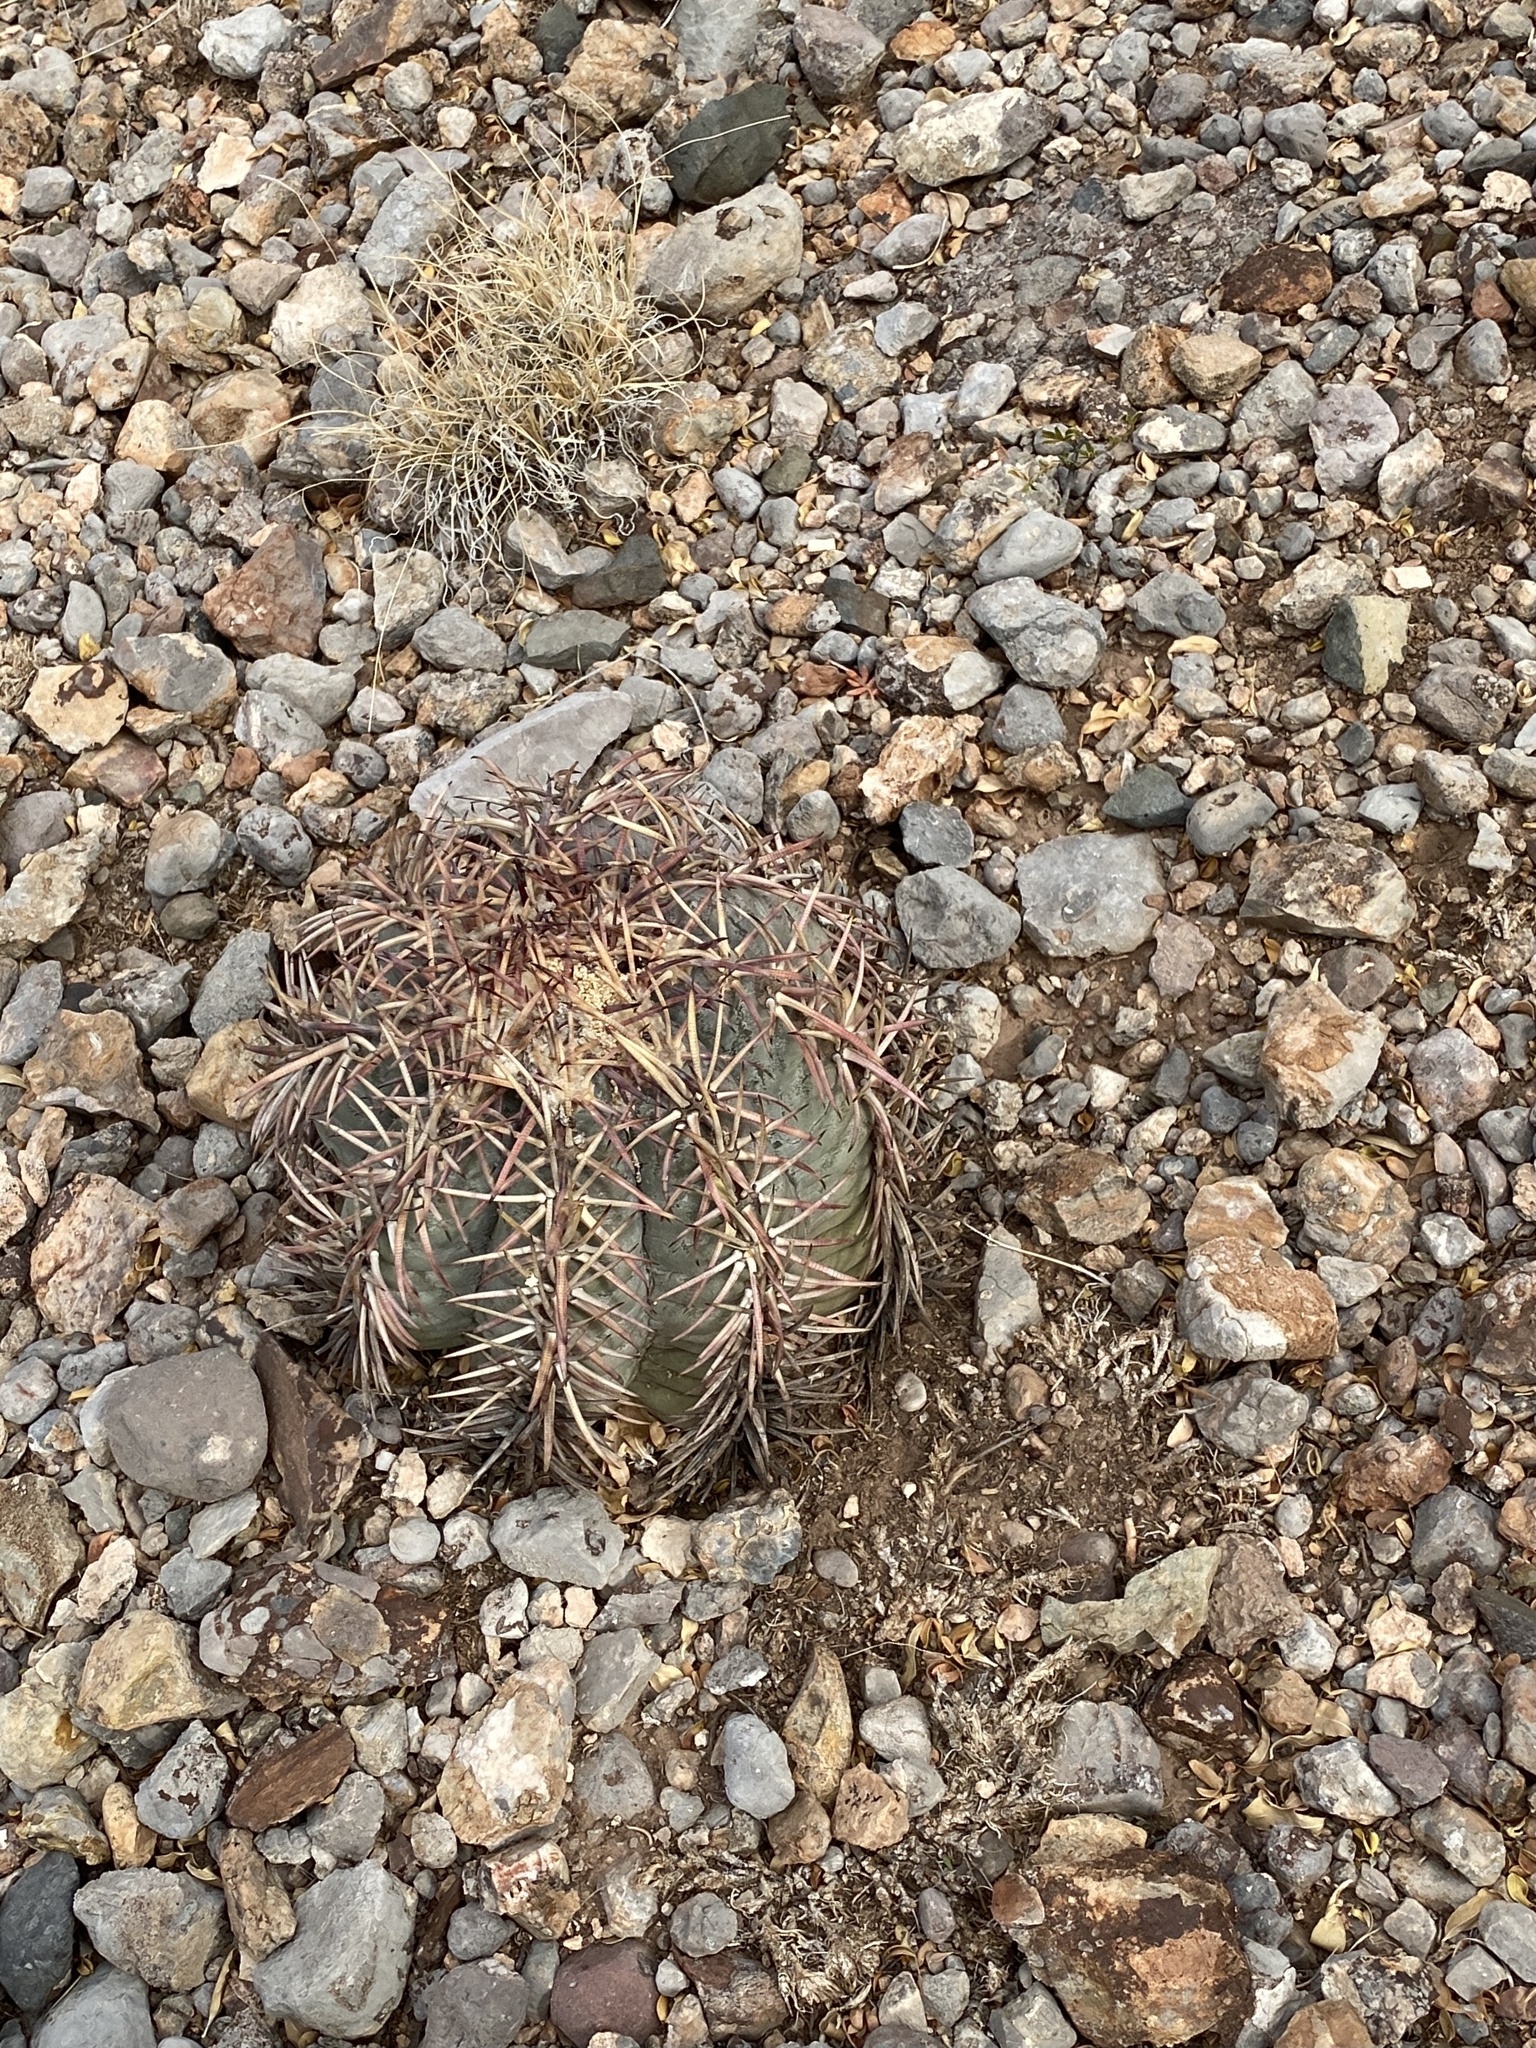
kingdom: Plantae
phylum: Tracheophyta
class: Magnoliopsida
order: Caryophyllales
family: Cactaceae
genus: Echinocactus
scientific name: Echinocactus horizonthalonius
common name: Devilshead
